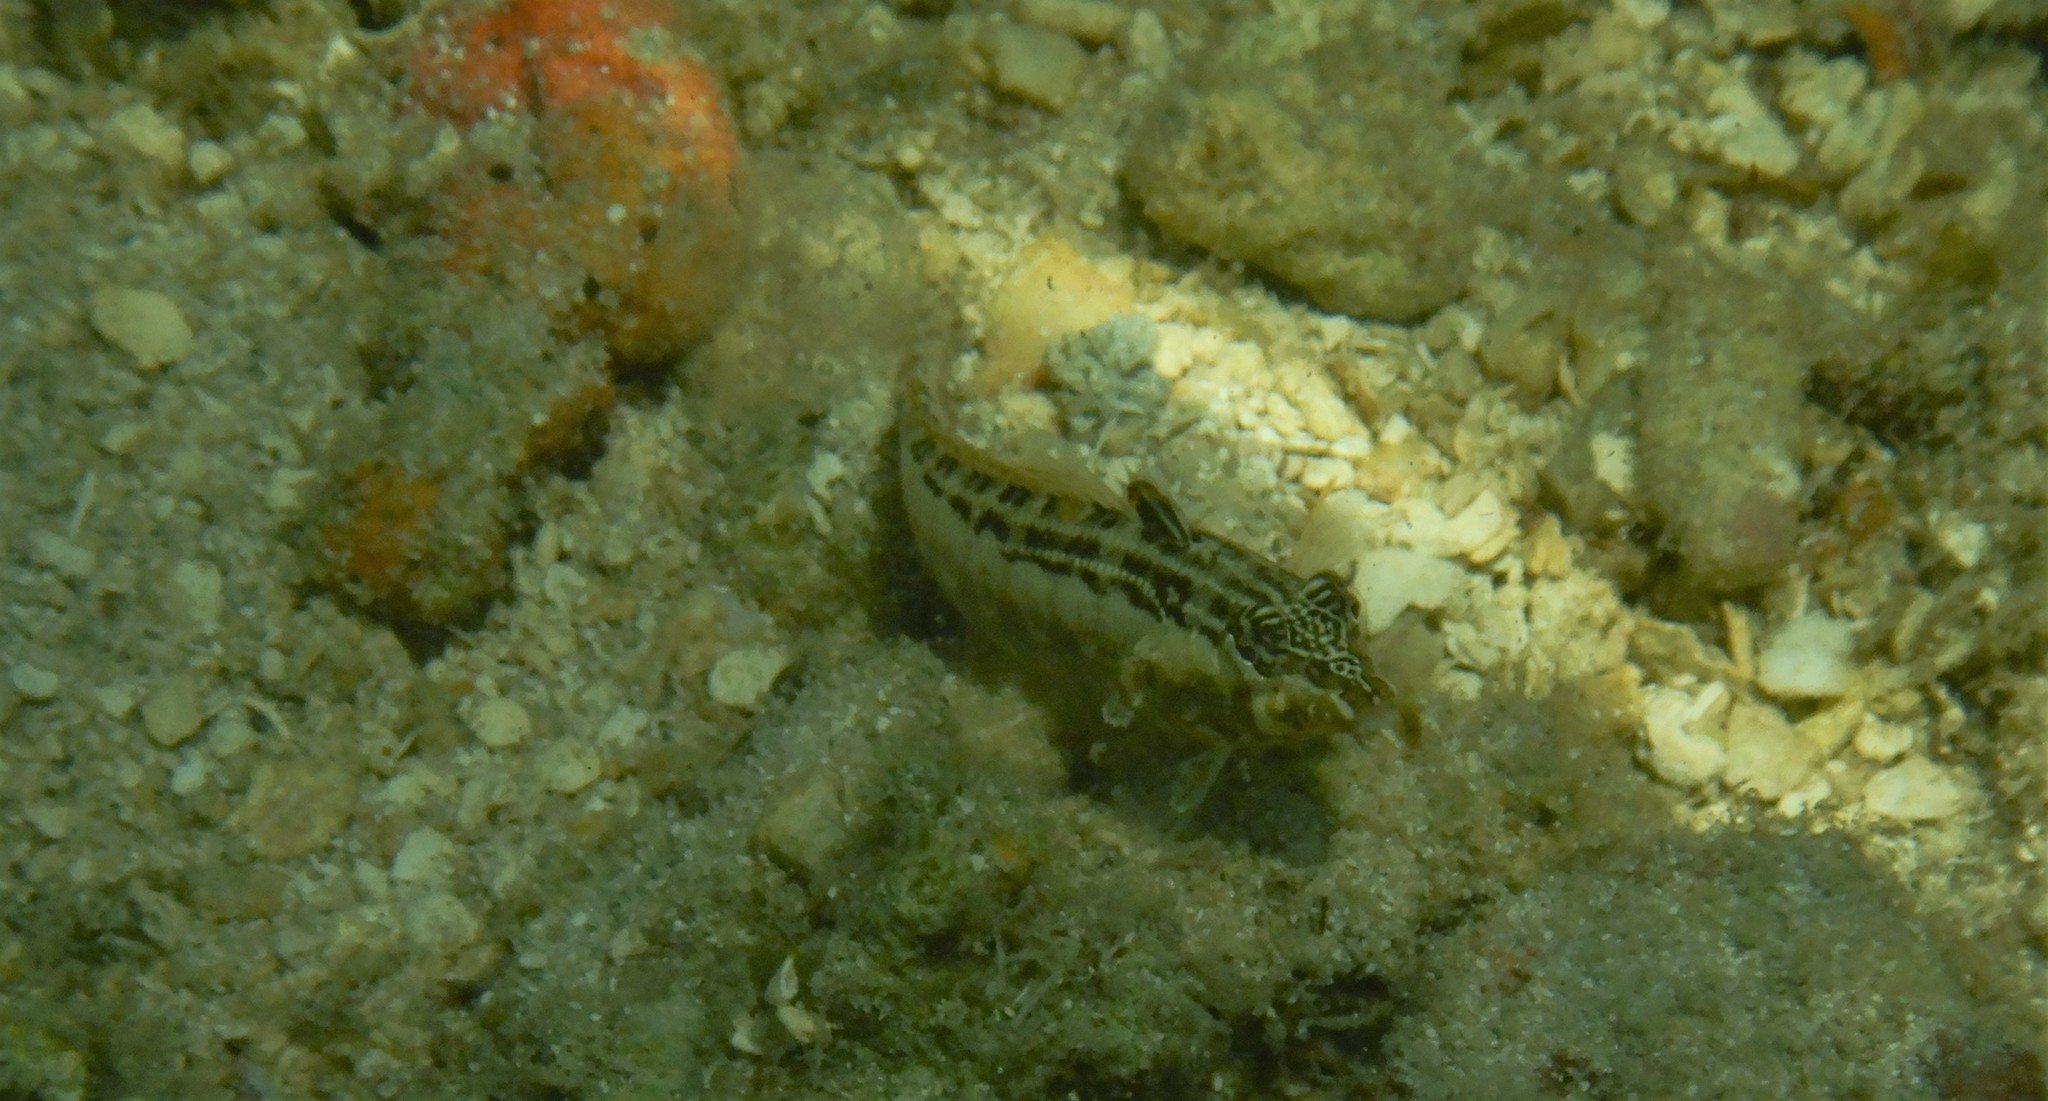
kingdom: Animalia
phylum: Chordata
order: Perciformes
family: Pinguipedidae
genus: Parapercis
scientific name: Parapercis australis
